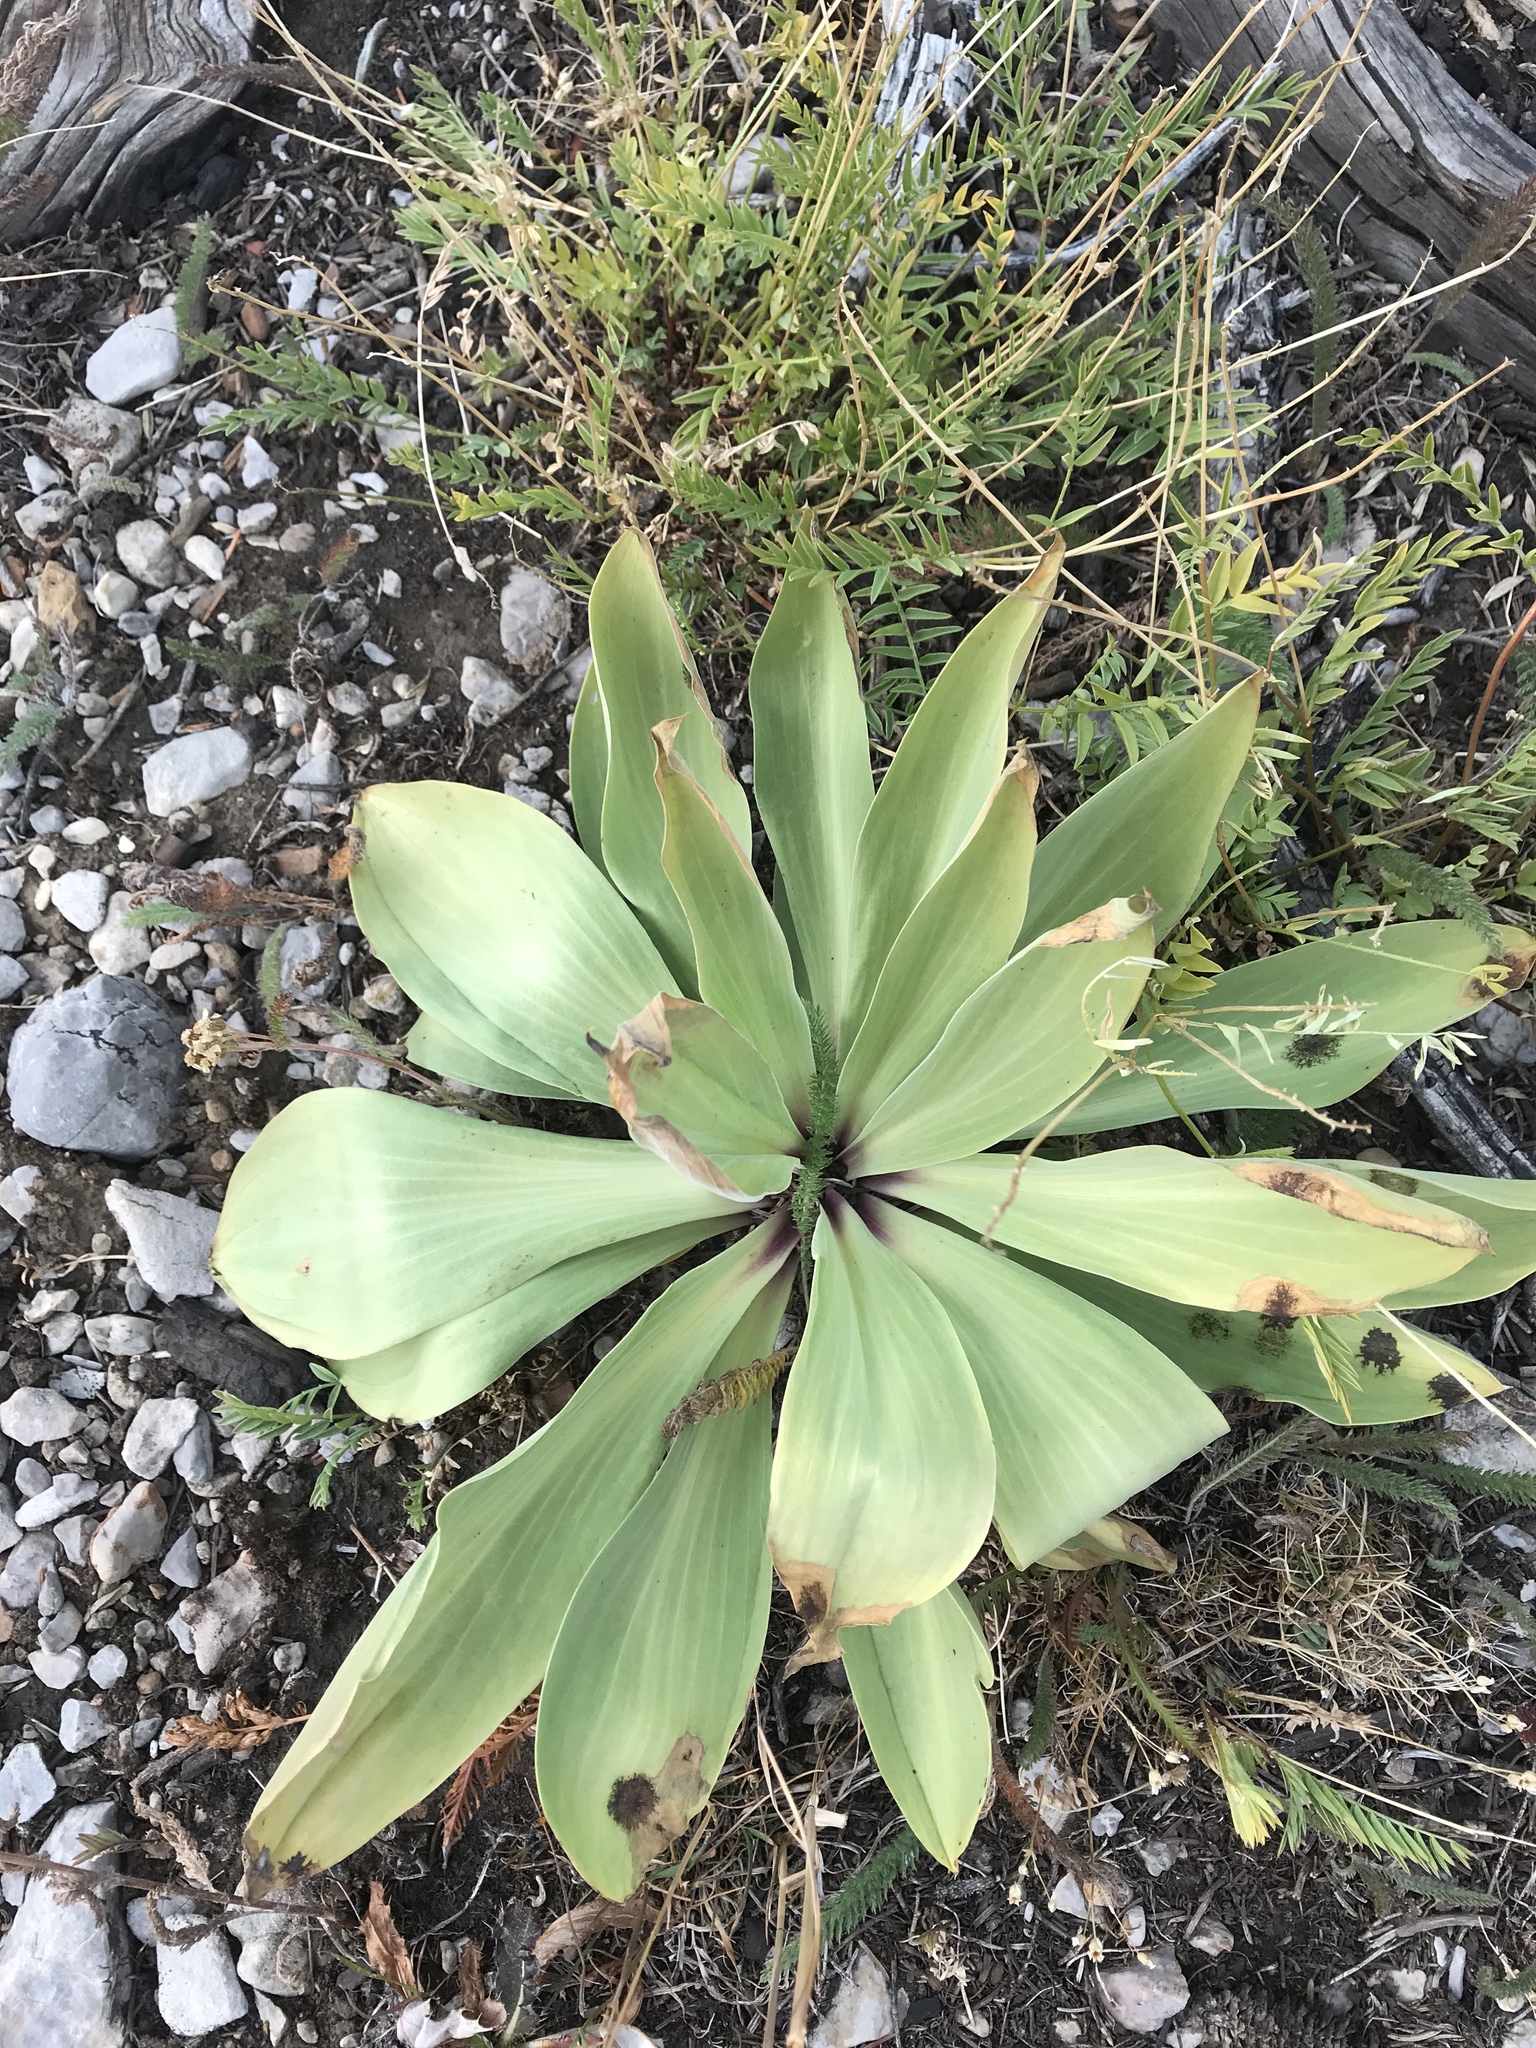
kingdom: Plantae
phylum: Tracheophyta
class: Magnoliopsida
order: Gentianales
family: Gentianaceae
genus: Frasera
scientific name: Frasera speciosa
